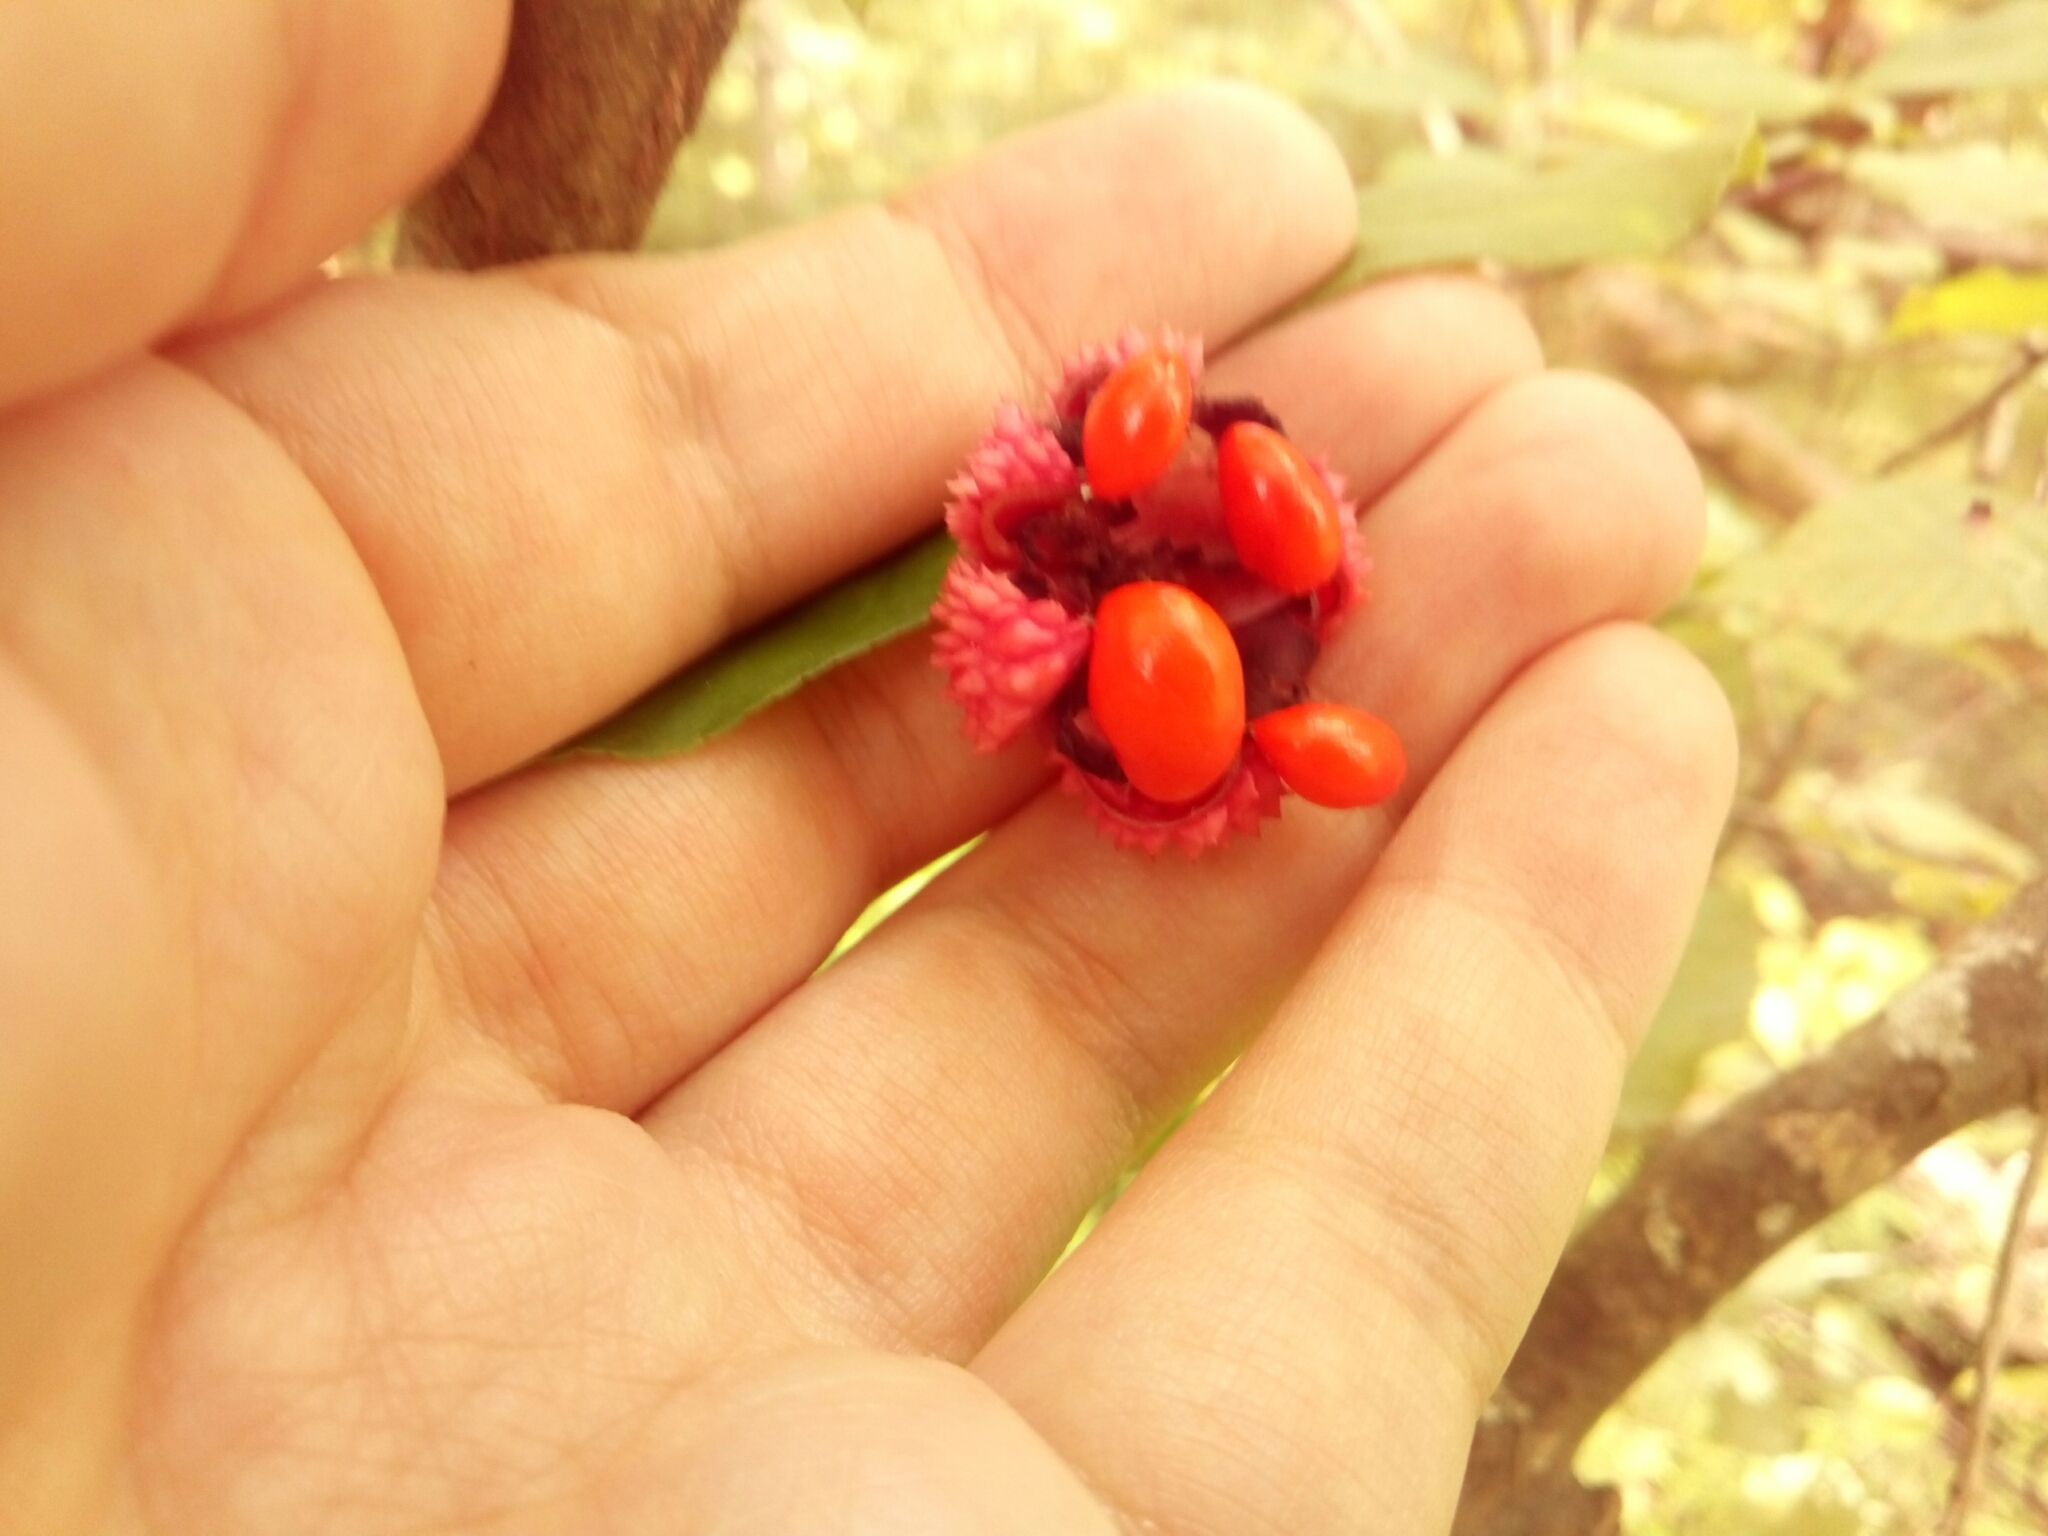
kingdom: Plantae
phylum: Tracheophyta
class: Magnoliopsida
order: Celastrales
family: Celastraceae
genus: Euonymus
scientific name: Euonymus americanus
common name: Bursting-heart
